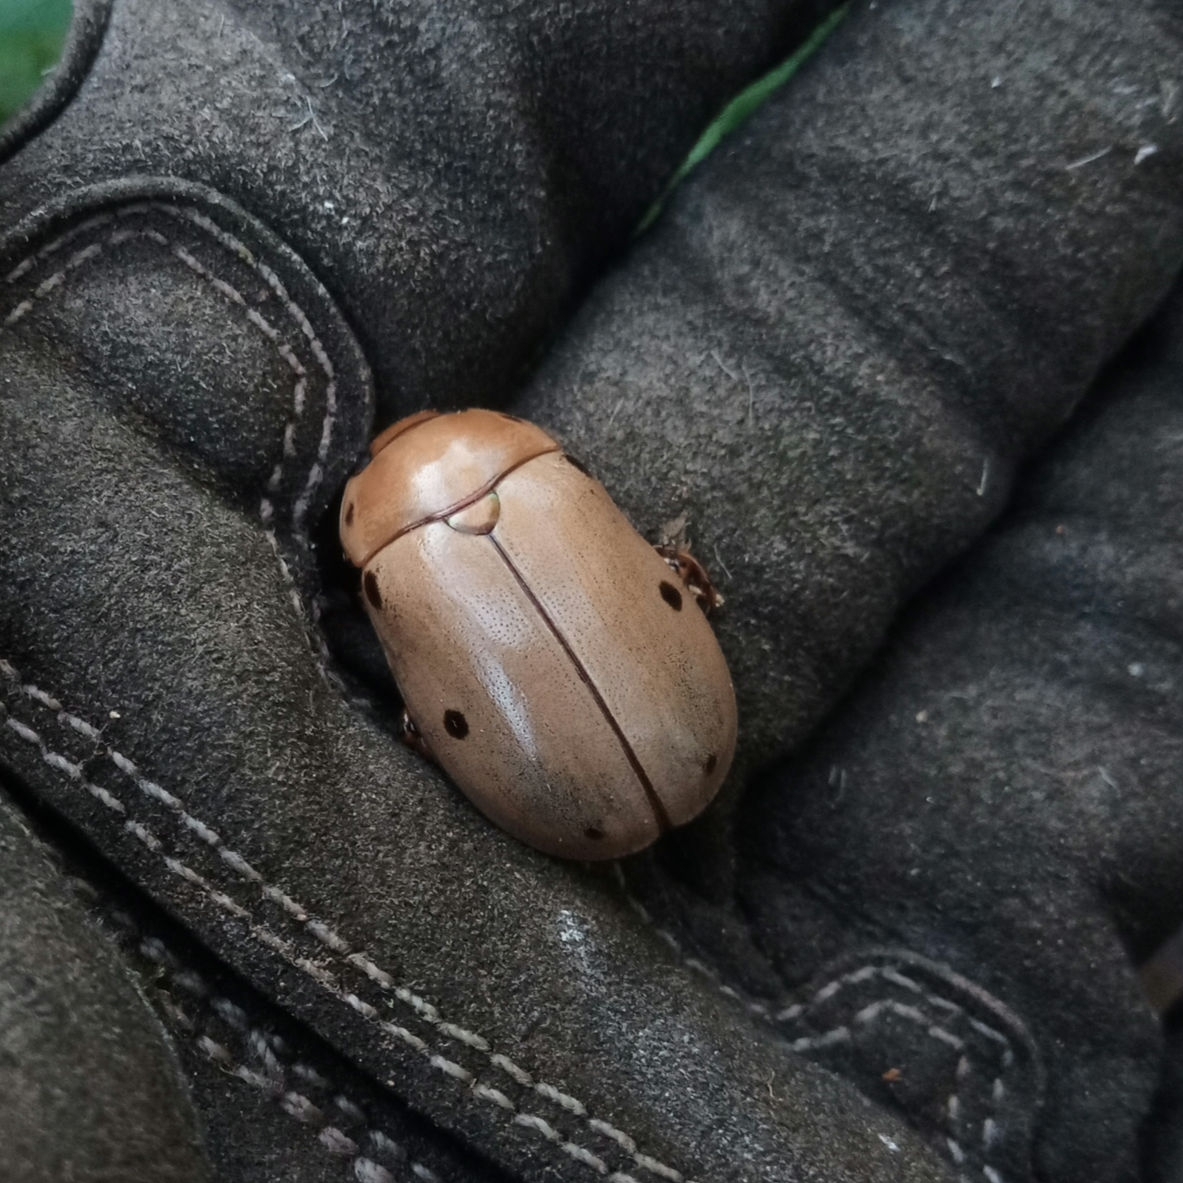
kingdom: Animalia
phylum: Arthropoda
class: Insecta
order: Coleoptera
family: Scarabaeidae
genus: Pelidnota
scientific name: Pelidnota punctata
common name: Grapevine beetle
